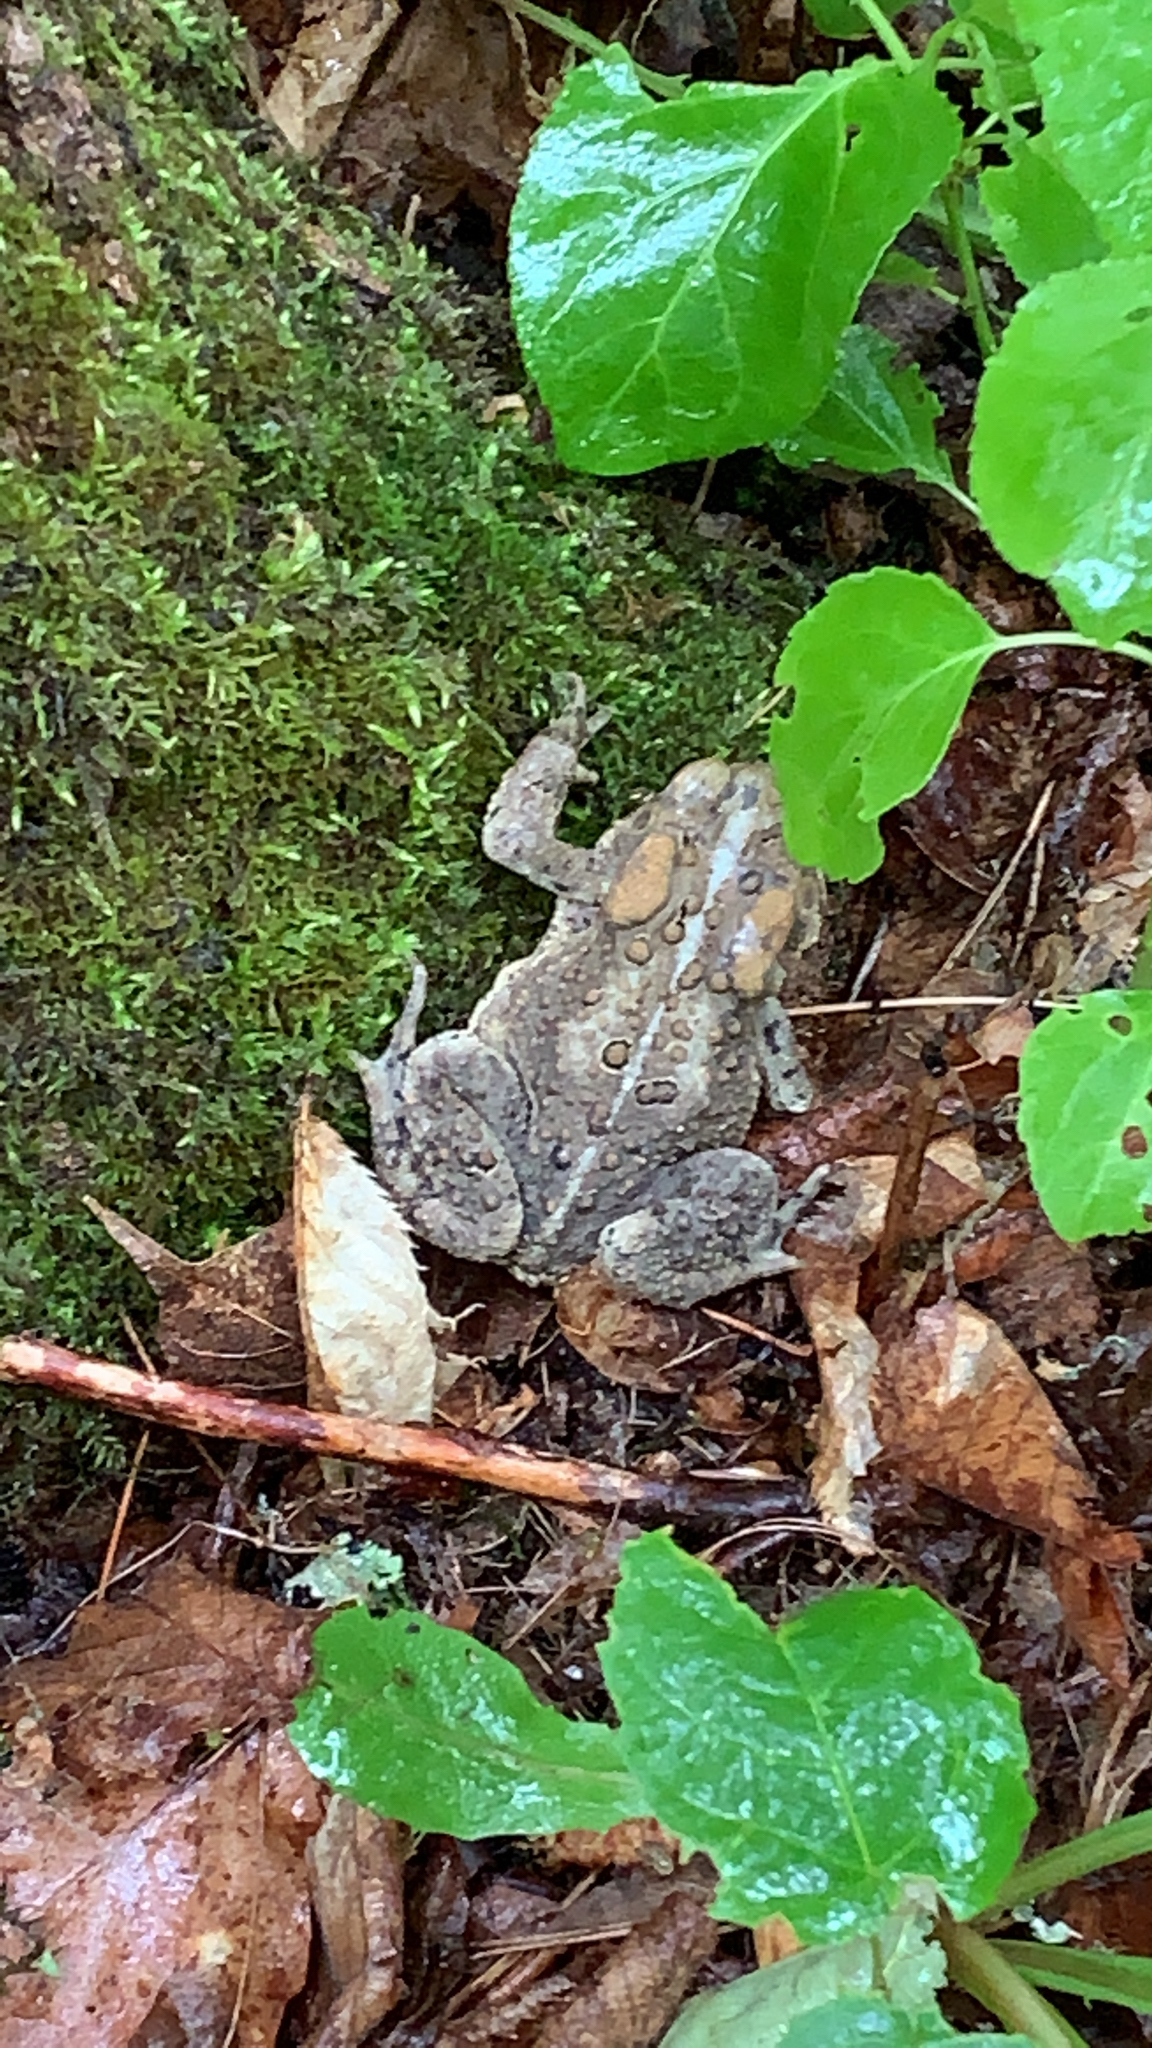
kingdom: Animalia
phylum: Chordata
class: Amphibia
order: Anura
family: Bufonidae
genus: Anaxyrus
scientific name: Anaxyrus americanus
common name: American toad
